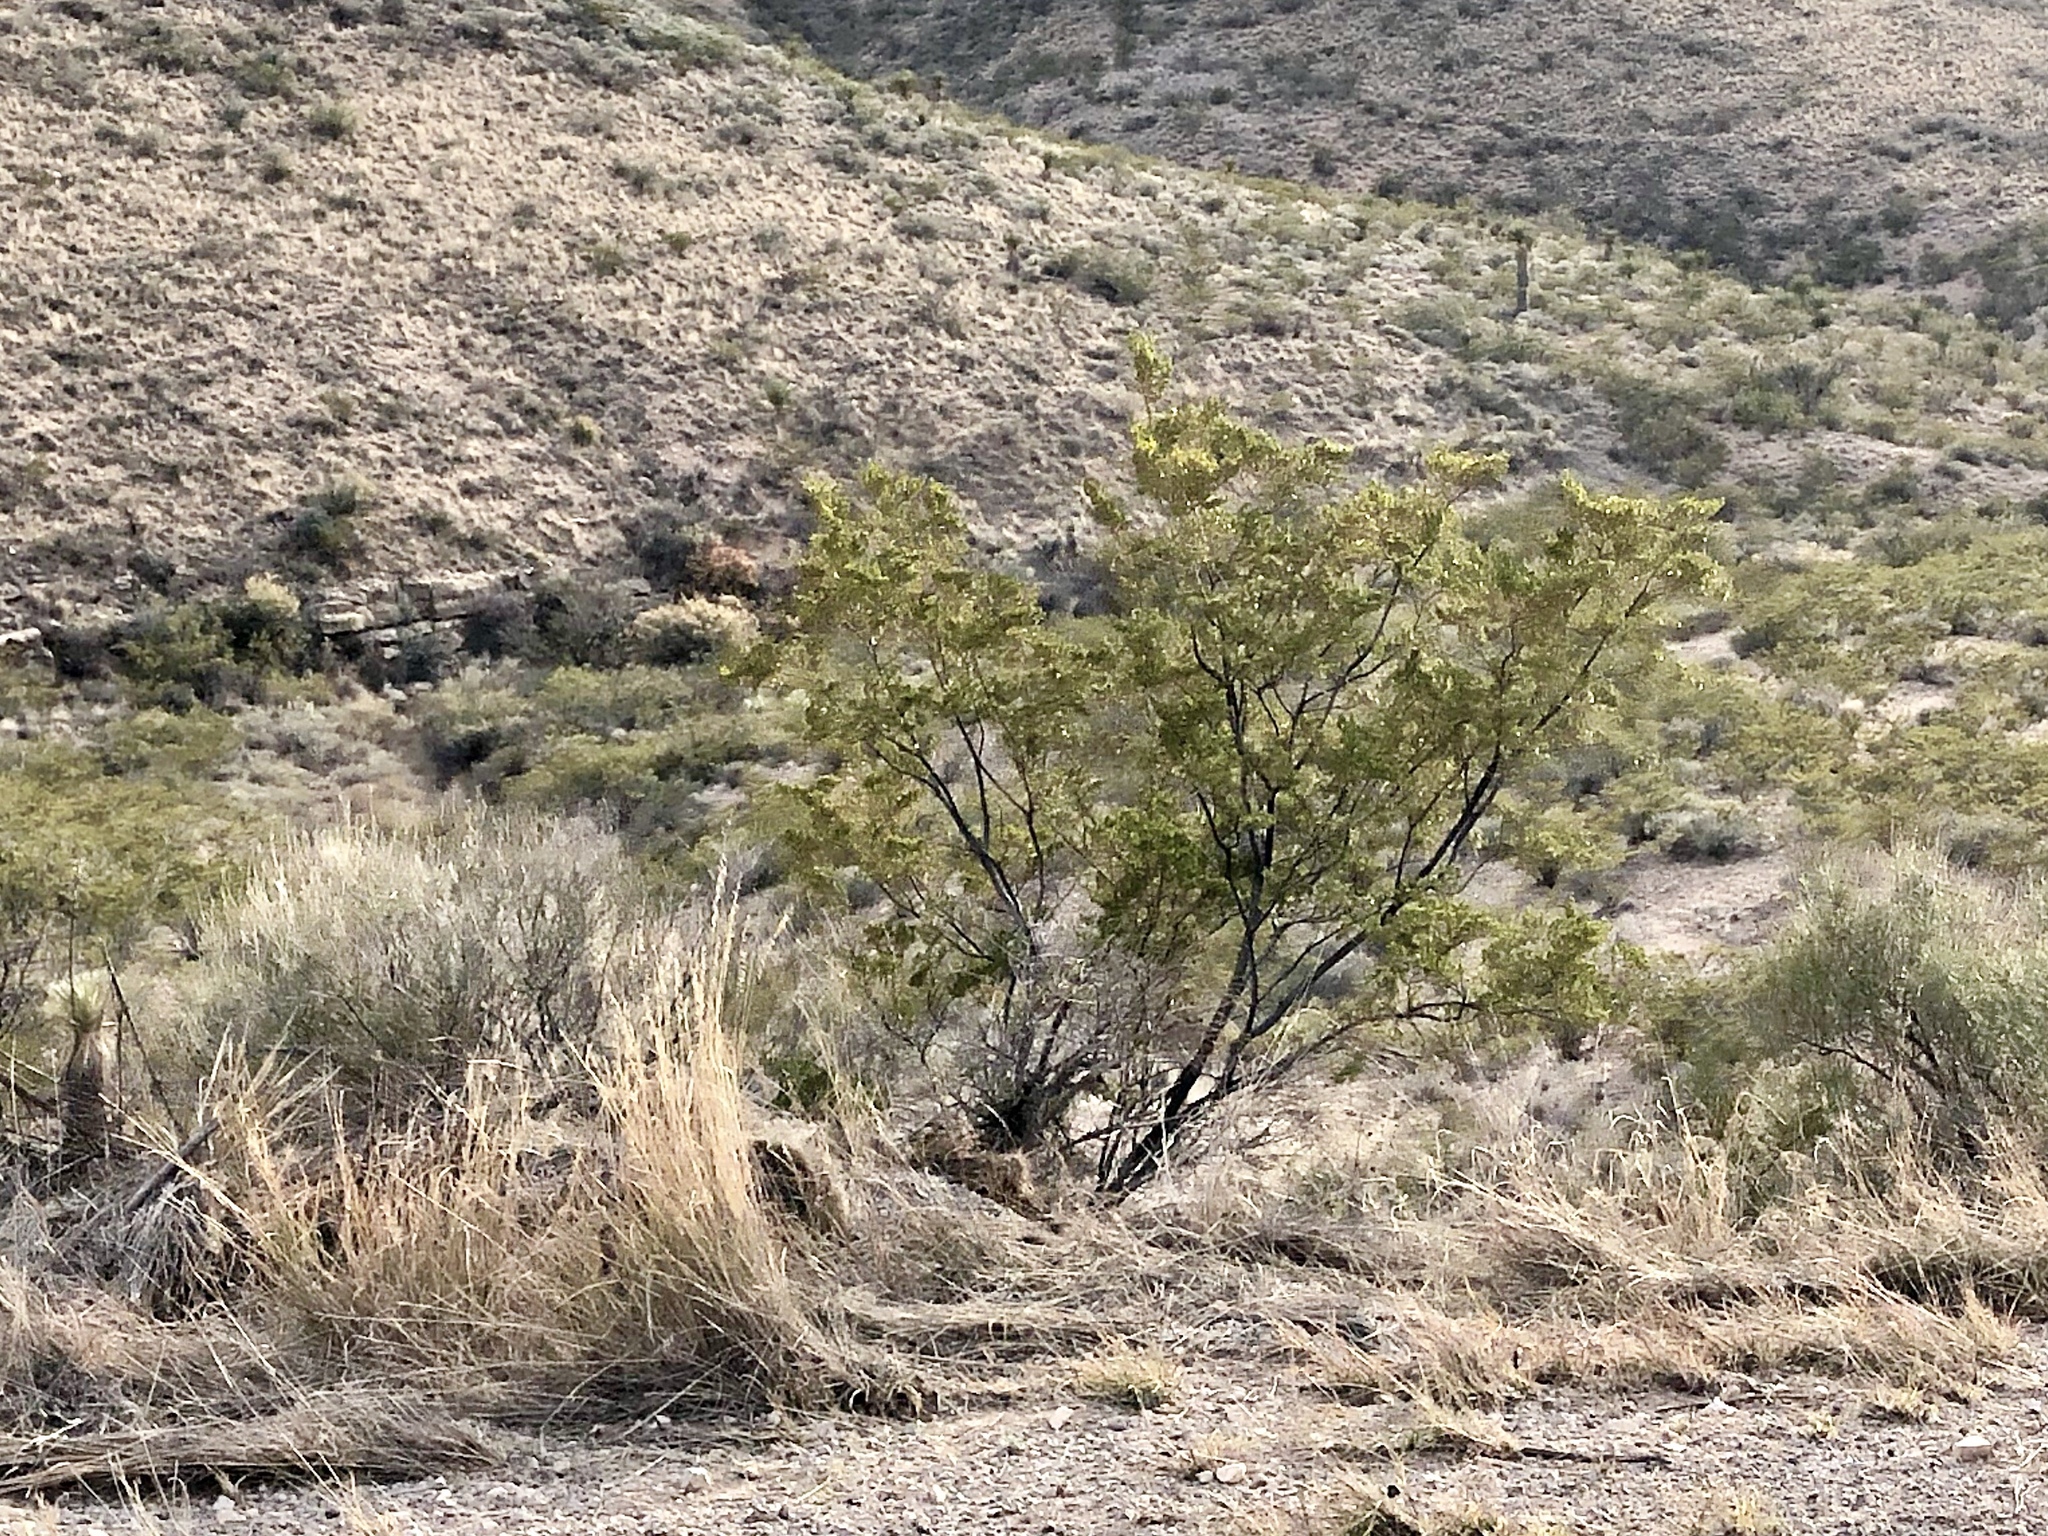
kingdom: Plantae
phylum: Tracheophyta
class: Magnoliopsida
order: Zygophyllales
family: Zygophyllaceae
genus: Larrea
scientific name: Larrea tridentata
